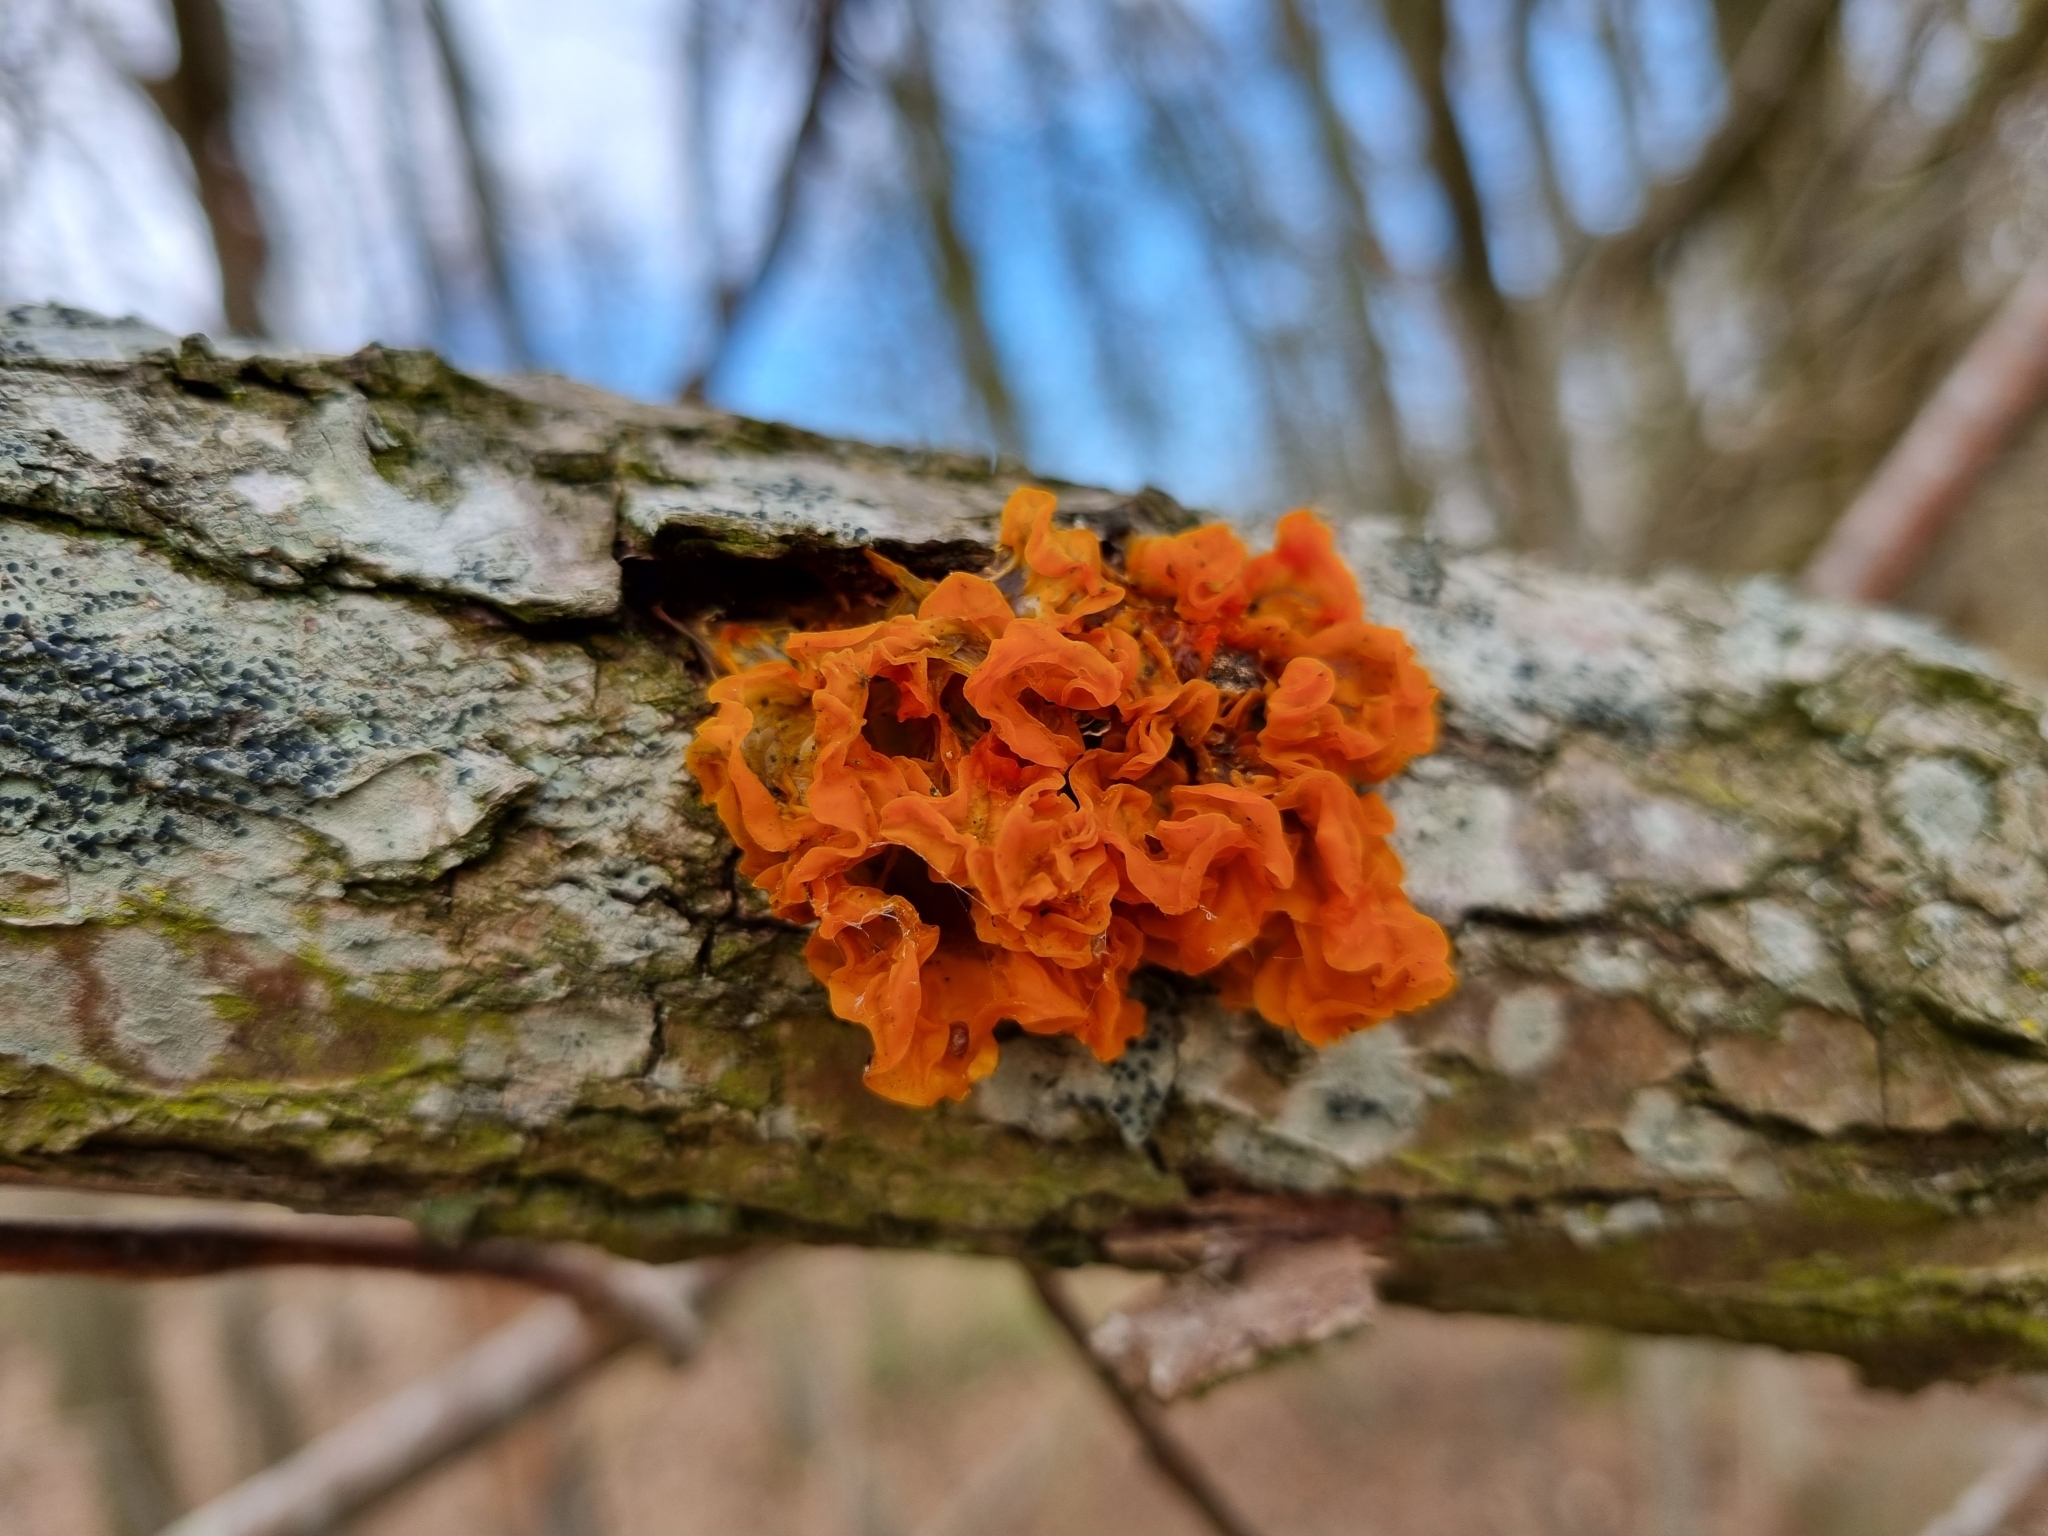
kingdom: Fungi
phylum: Basidiomycota
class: Tremellomycetes
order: Tremellales
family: Tremellaceae
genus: Tremella
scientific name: Tremella mesenterica
